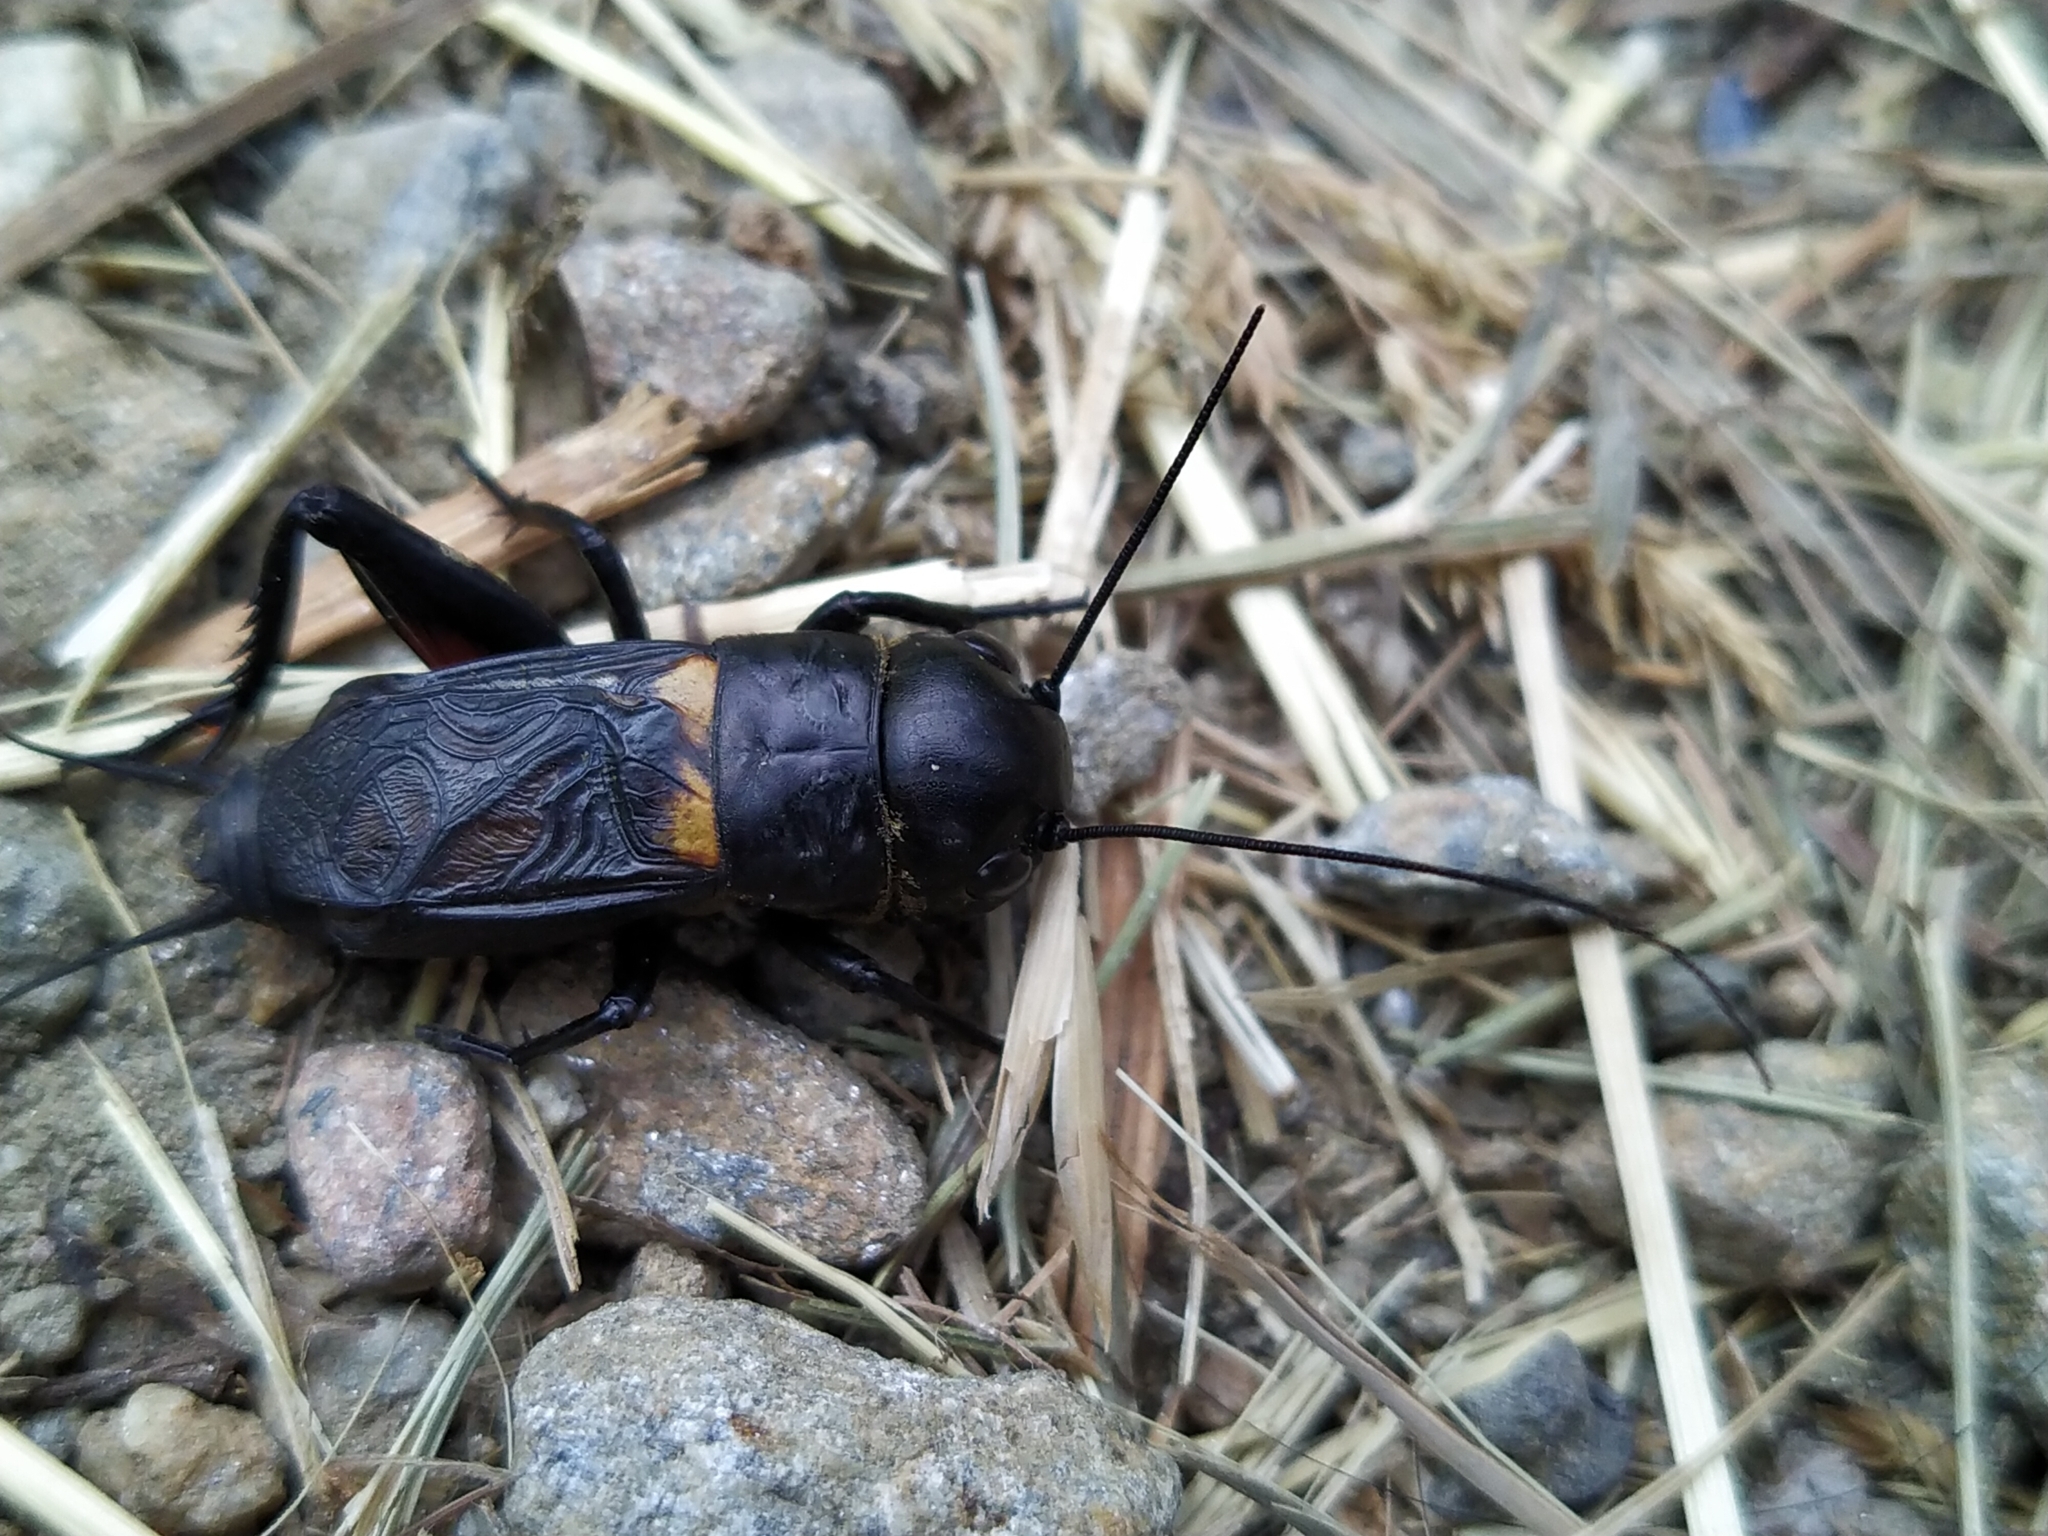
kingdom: Animalia
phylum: Arthropoda
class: Insecta
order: Orthoptera
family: Gryllidae
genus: Gryllus
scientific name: Gryllus campestris
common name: Field cricket
